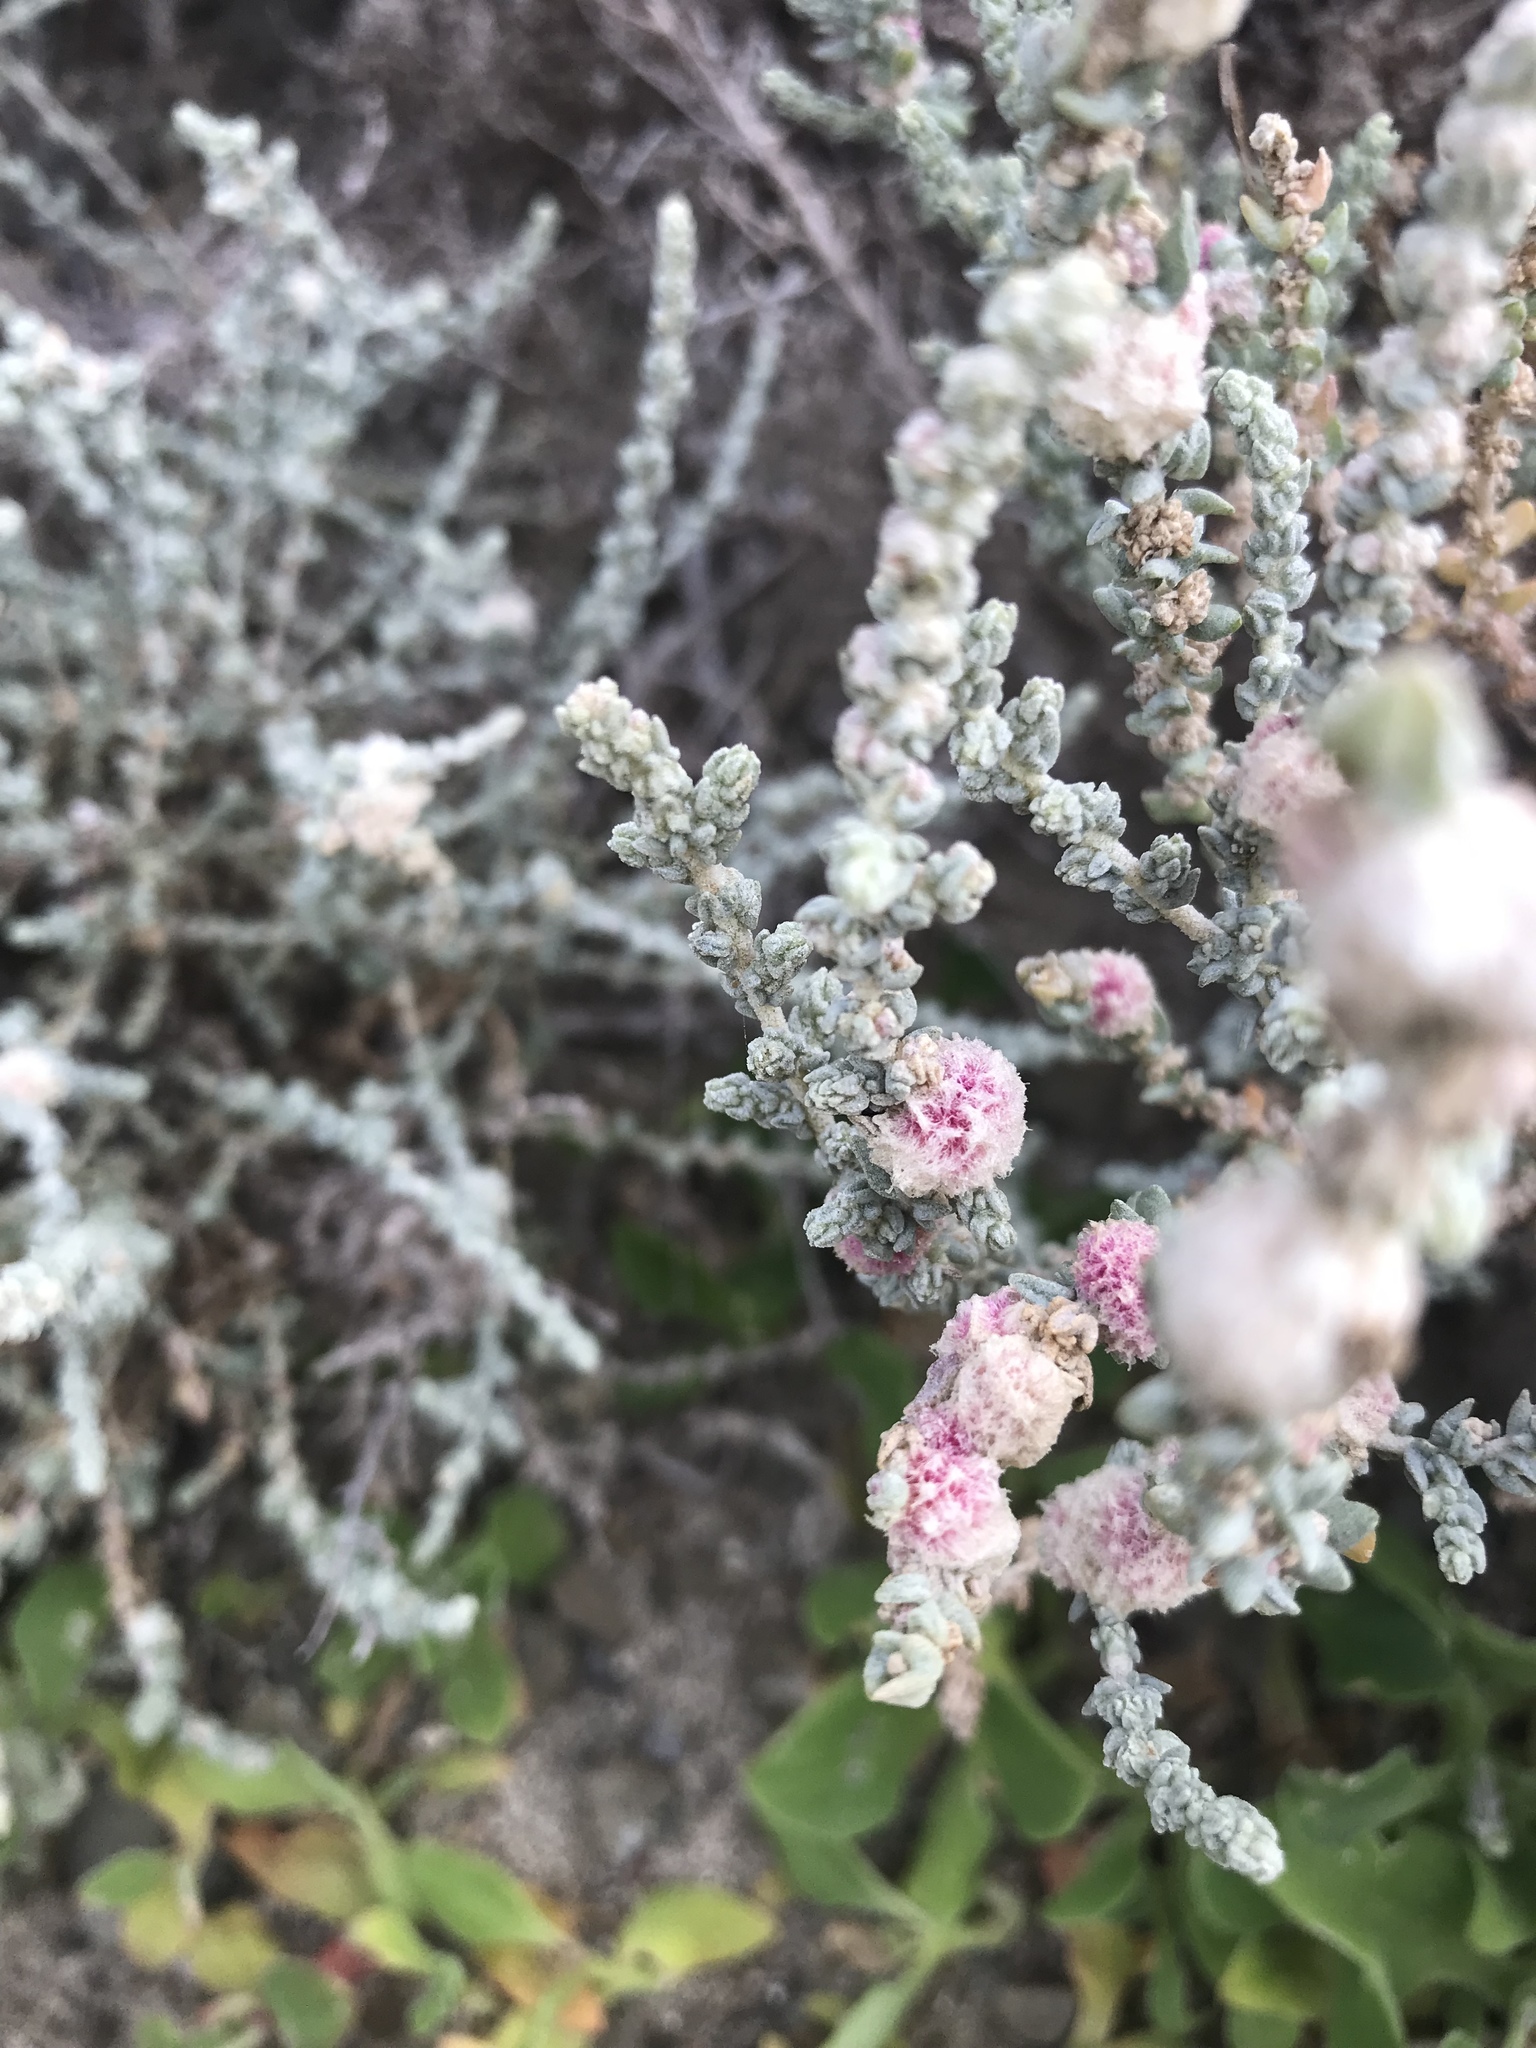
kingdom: Plantae
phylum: Tracheophyta
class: Magnoliopsida
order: Caryophyllales
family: Amaranthaceae
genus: Atriplex
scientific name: Atriplex julacea
